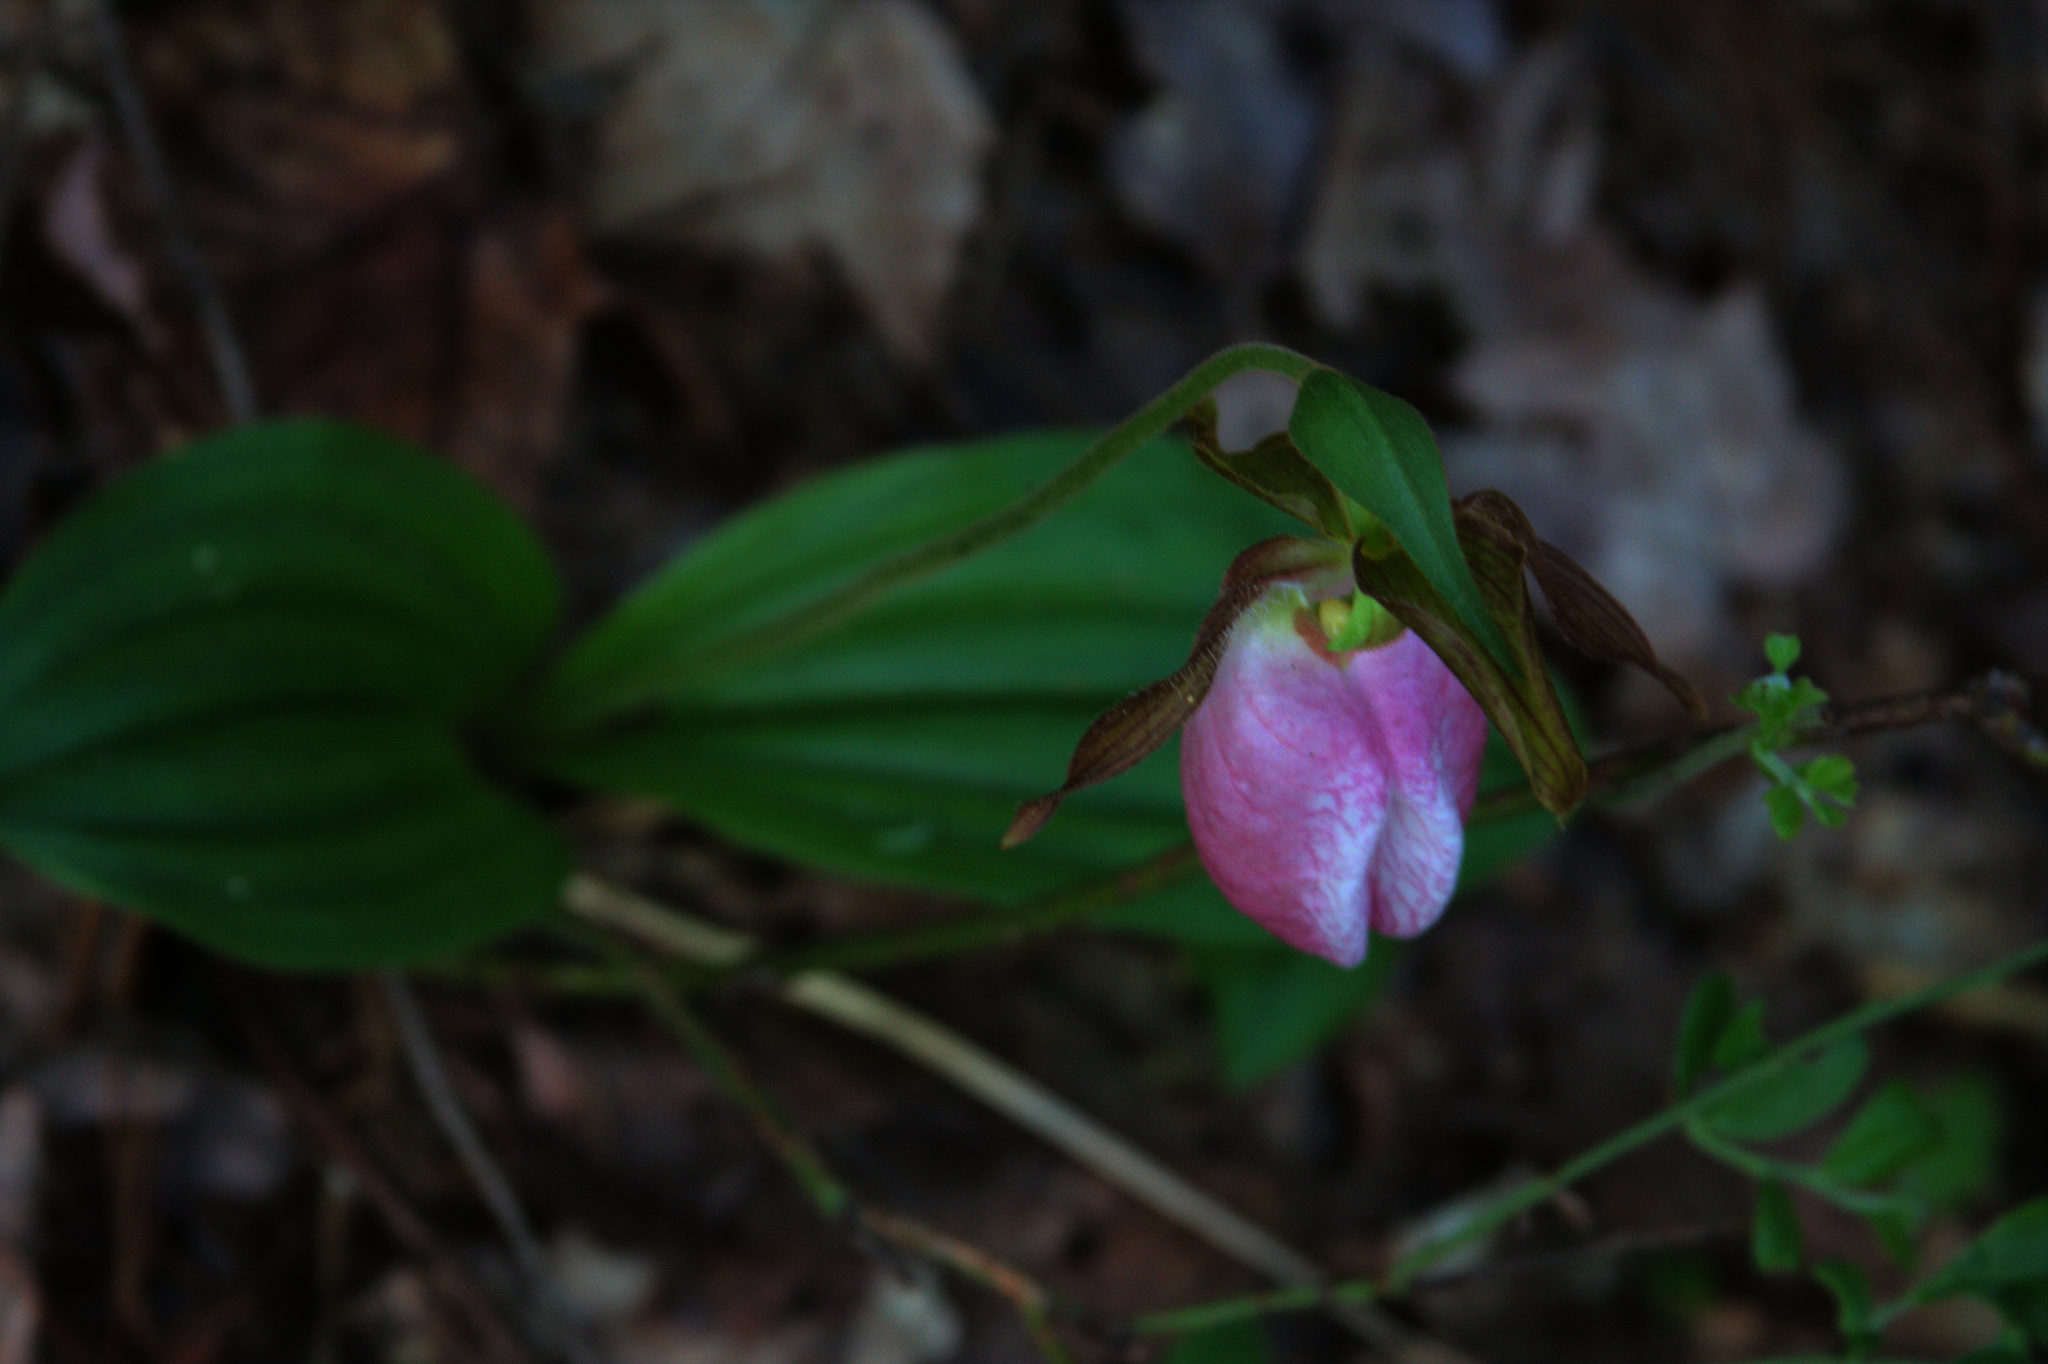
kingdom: Plantae
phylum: Tracheophyta
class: Liliopsida
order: Asparagales
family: Orchidaceae
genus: Cypripedium
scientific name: Cypripedium acaule
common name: Pink lady's-slipper
